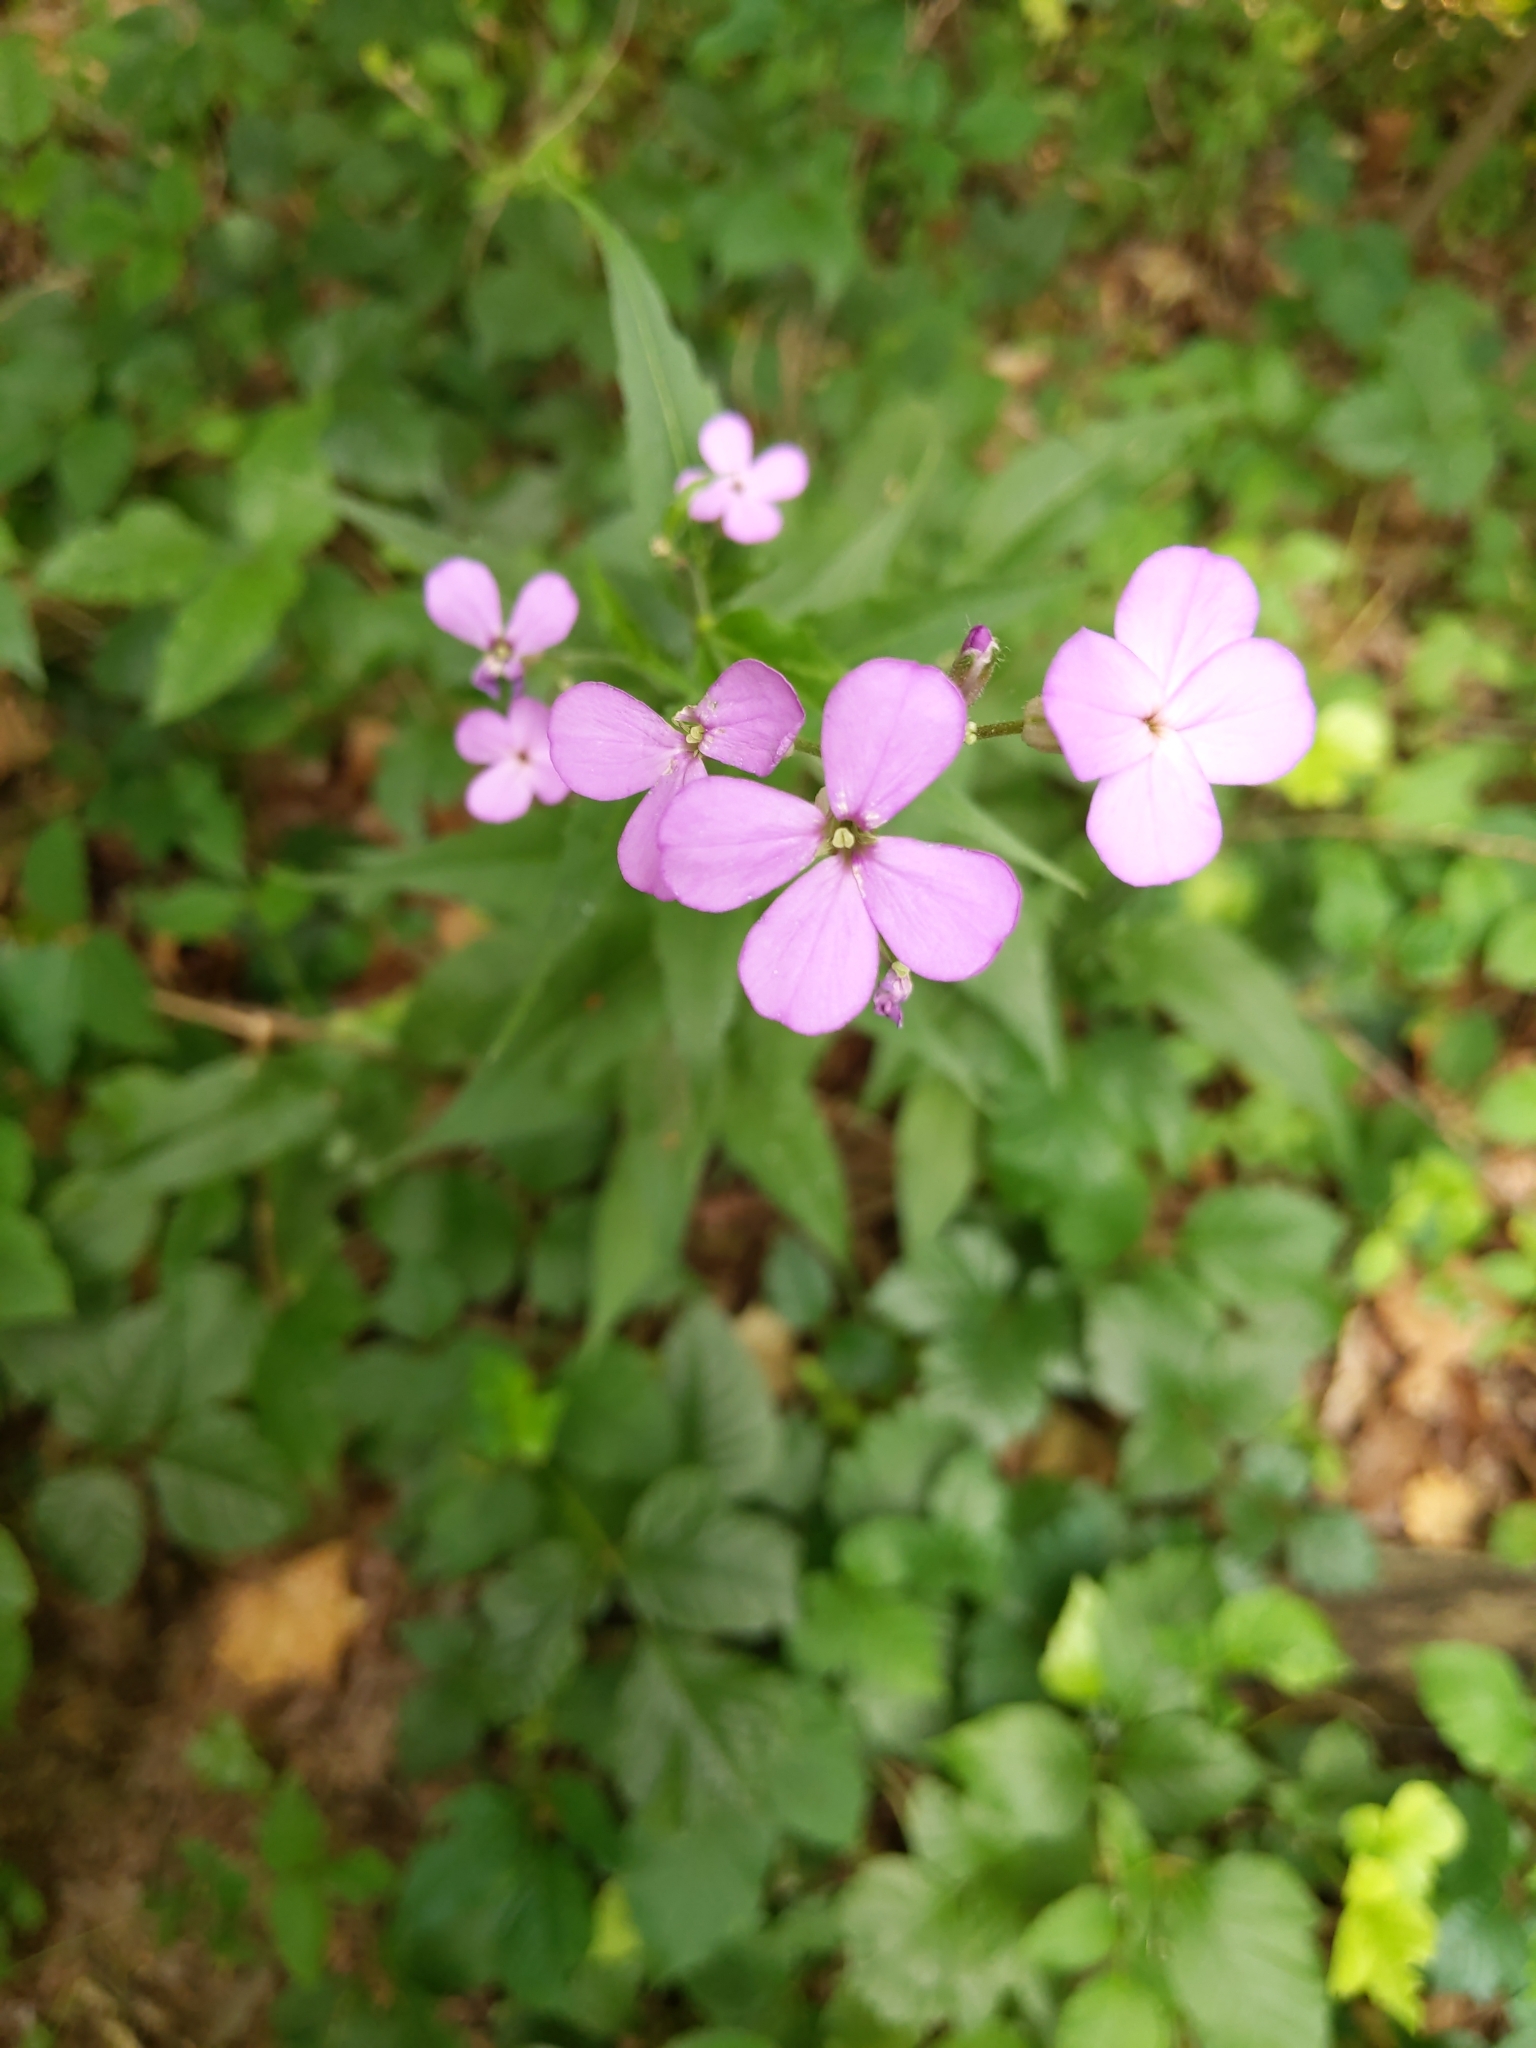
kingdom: Plantae
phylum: Tracheophyta
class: Magnoliopsida
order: Brassicales
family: Brassicaceae
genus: Hesperis
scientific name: Hesperis matronalis
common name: Dame's-violet
